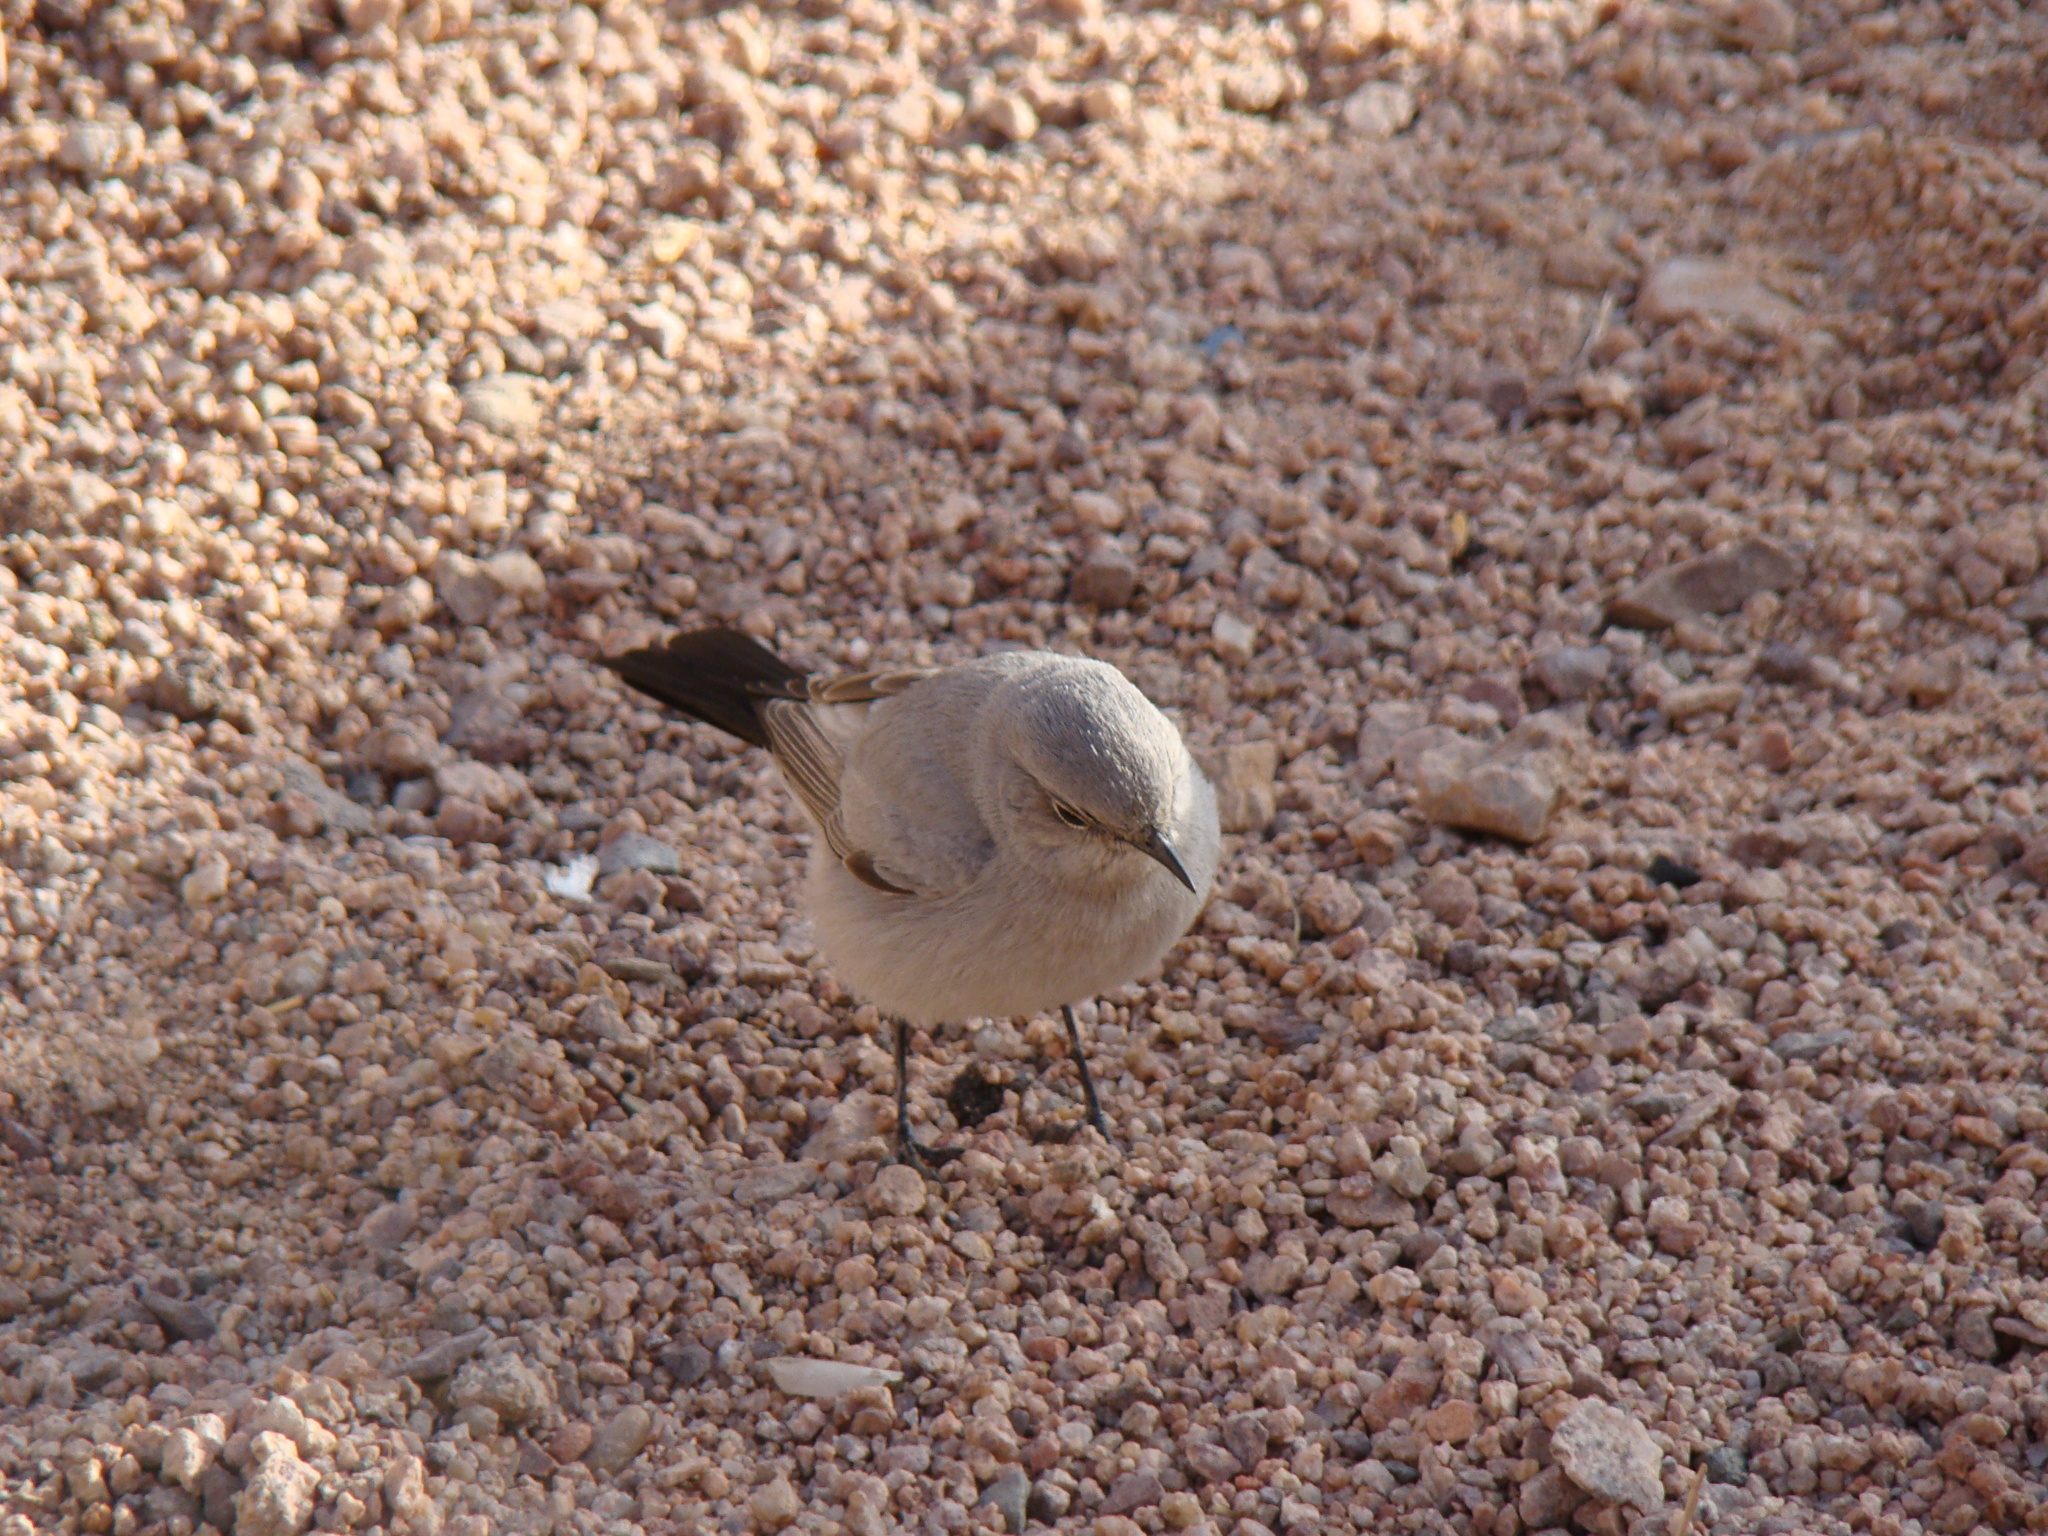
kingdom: Animalia
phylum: Chordata
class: Aves
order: Passeriformes
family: Muscicapidae
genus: Oenanthe
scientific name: Oenanthe melanura
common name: Blackstart
